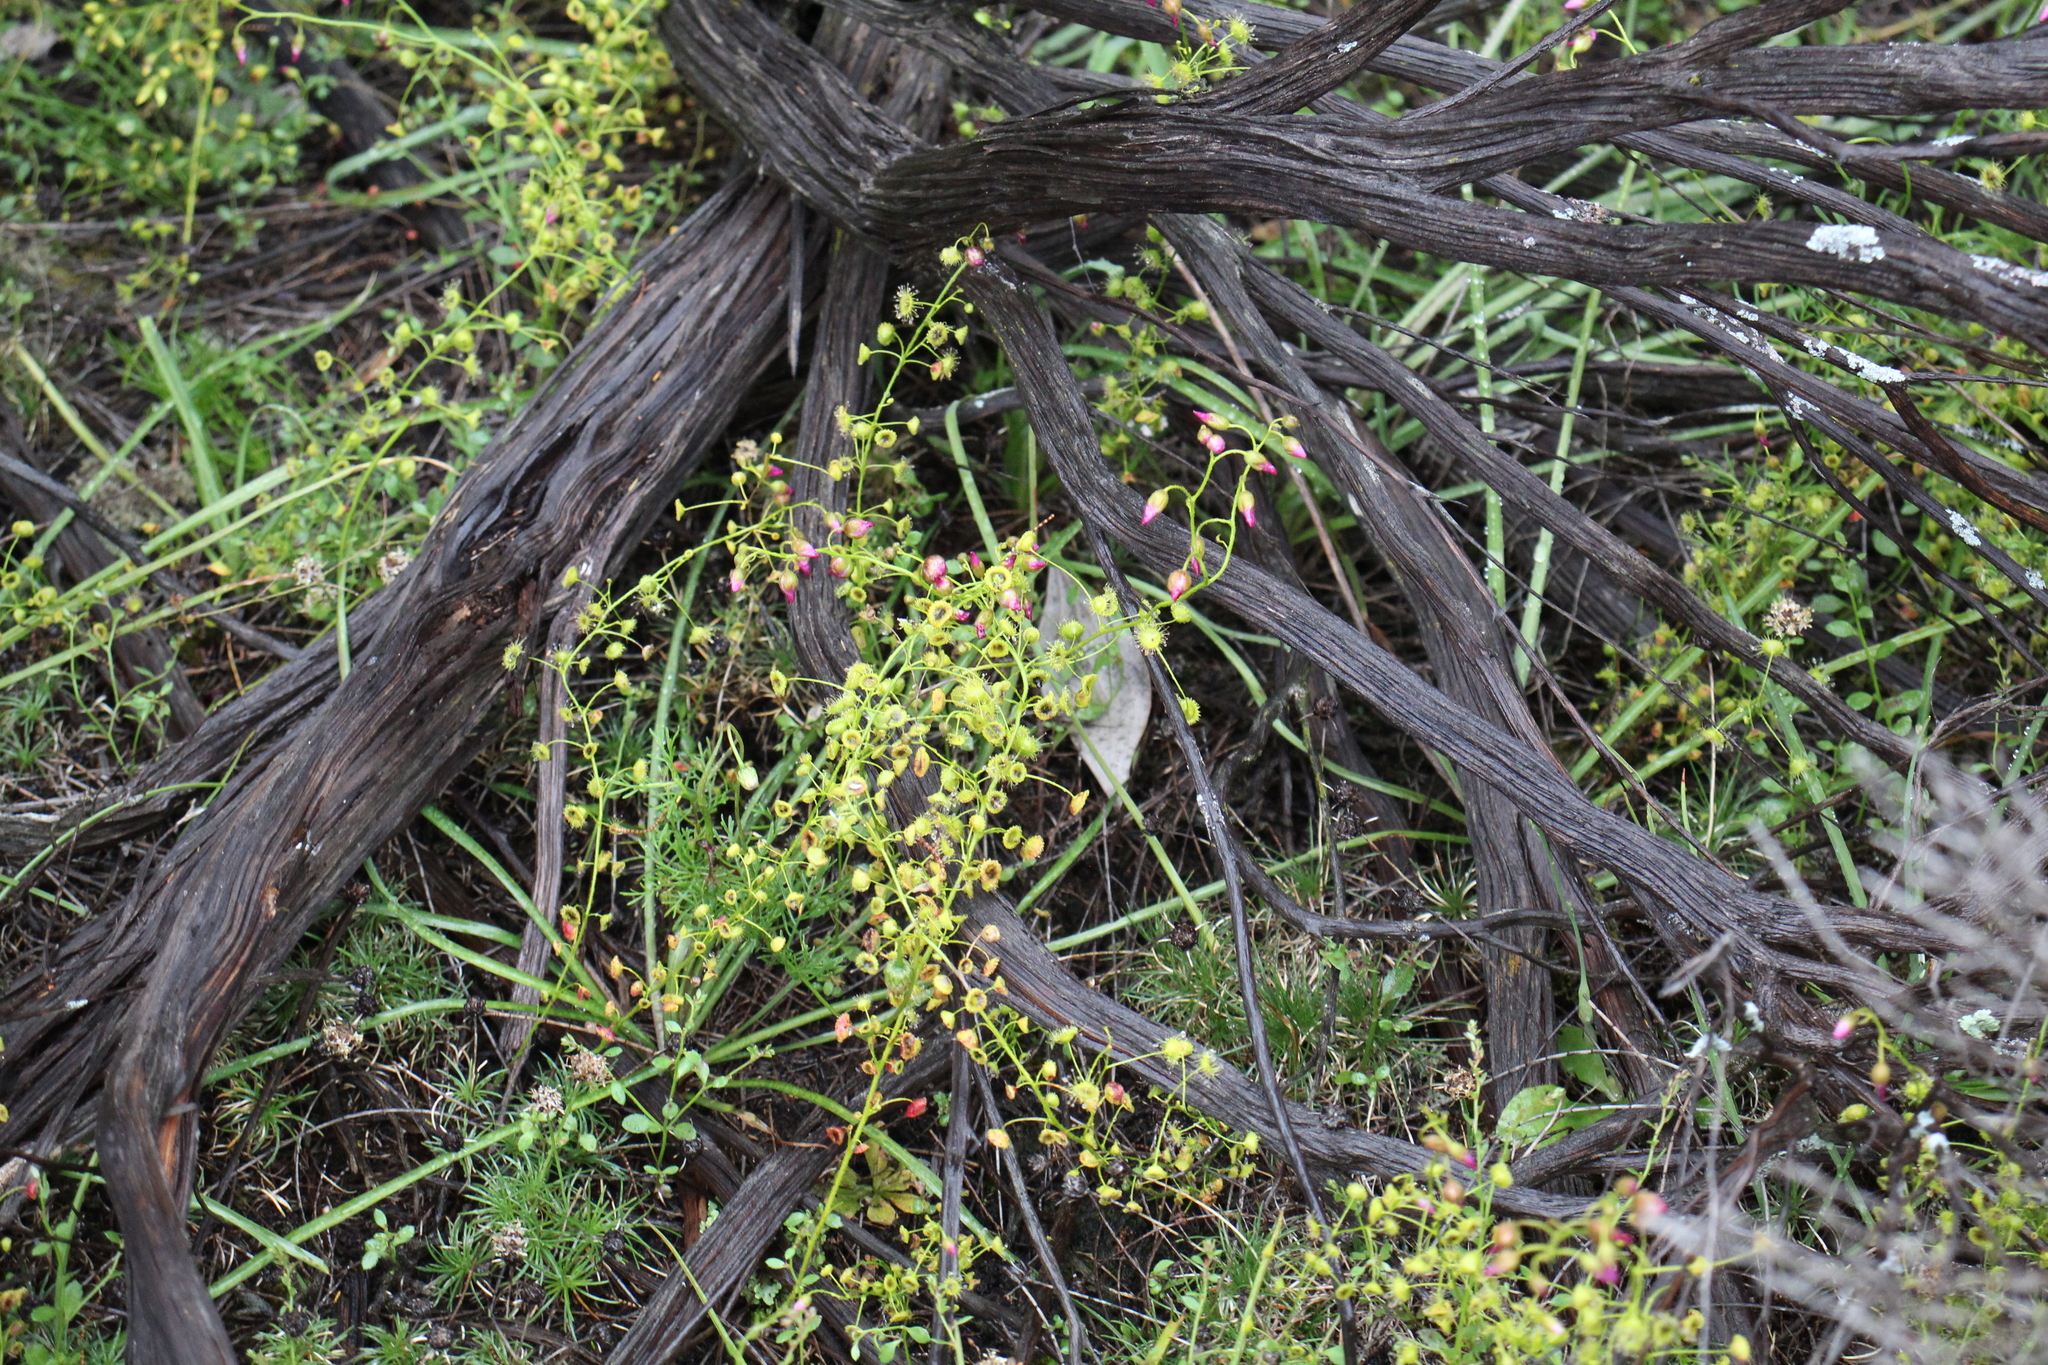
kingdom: Plantae
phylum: Tracheophyta
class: Magnoliopsida
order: Caryophyllales
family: Droseraceae
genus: Drosera
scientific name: Drosera stricticaulis
